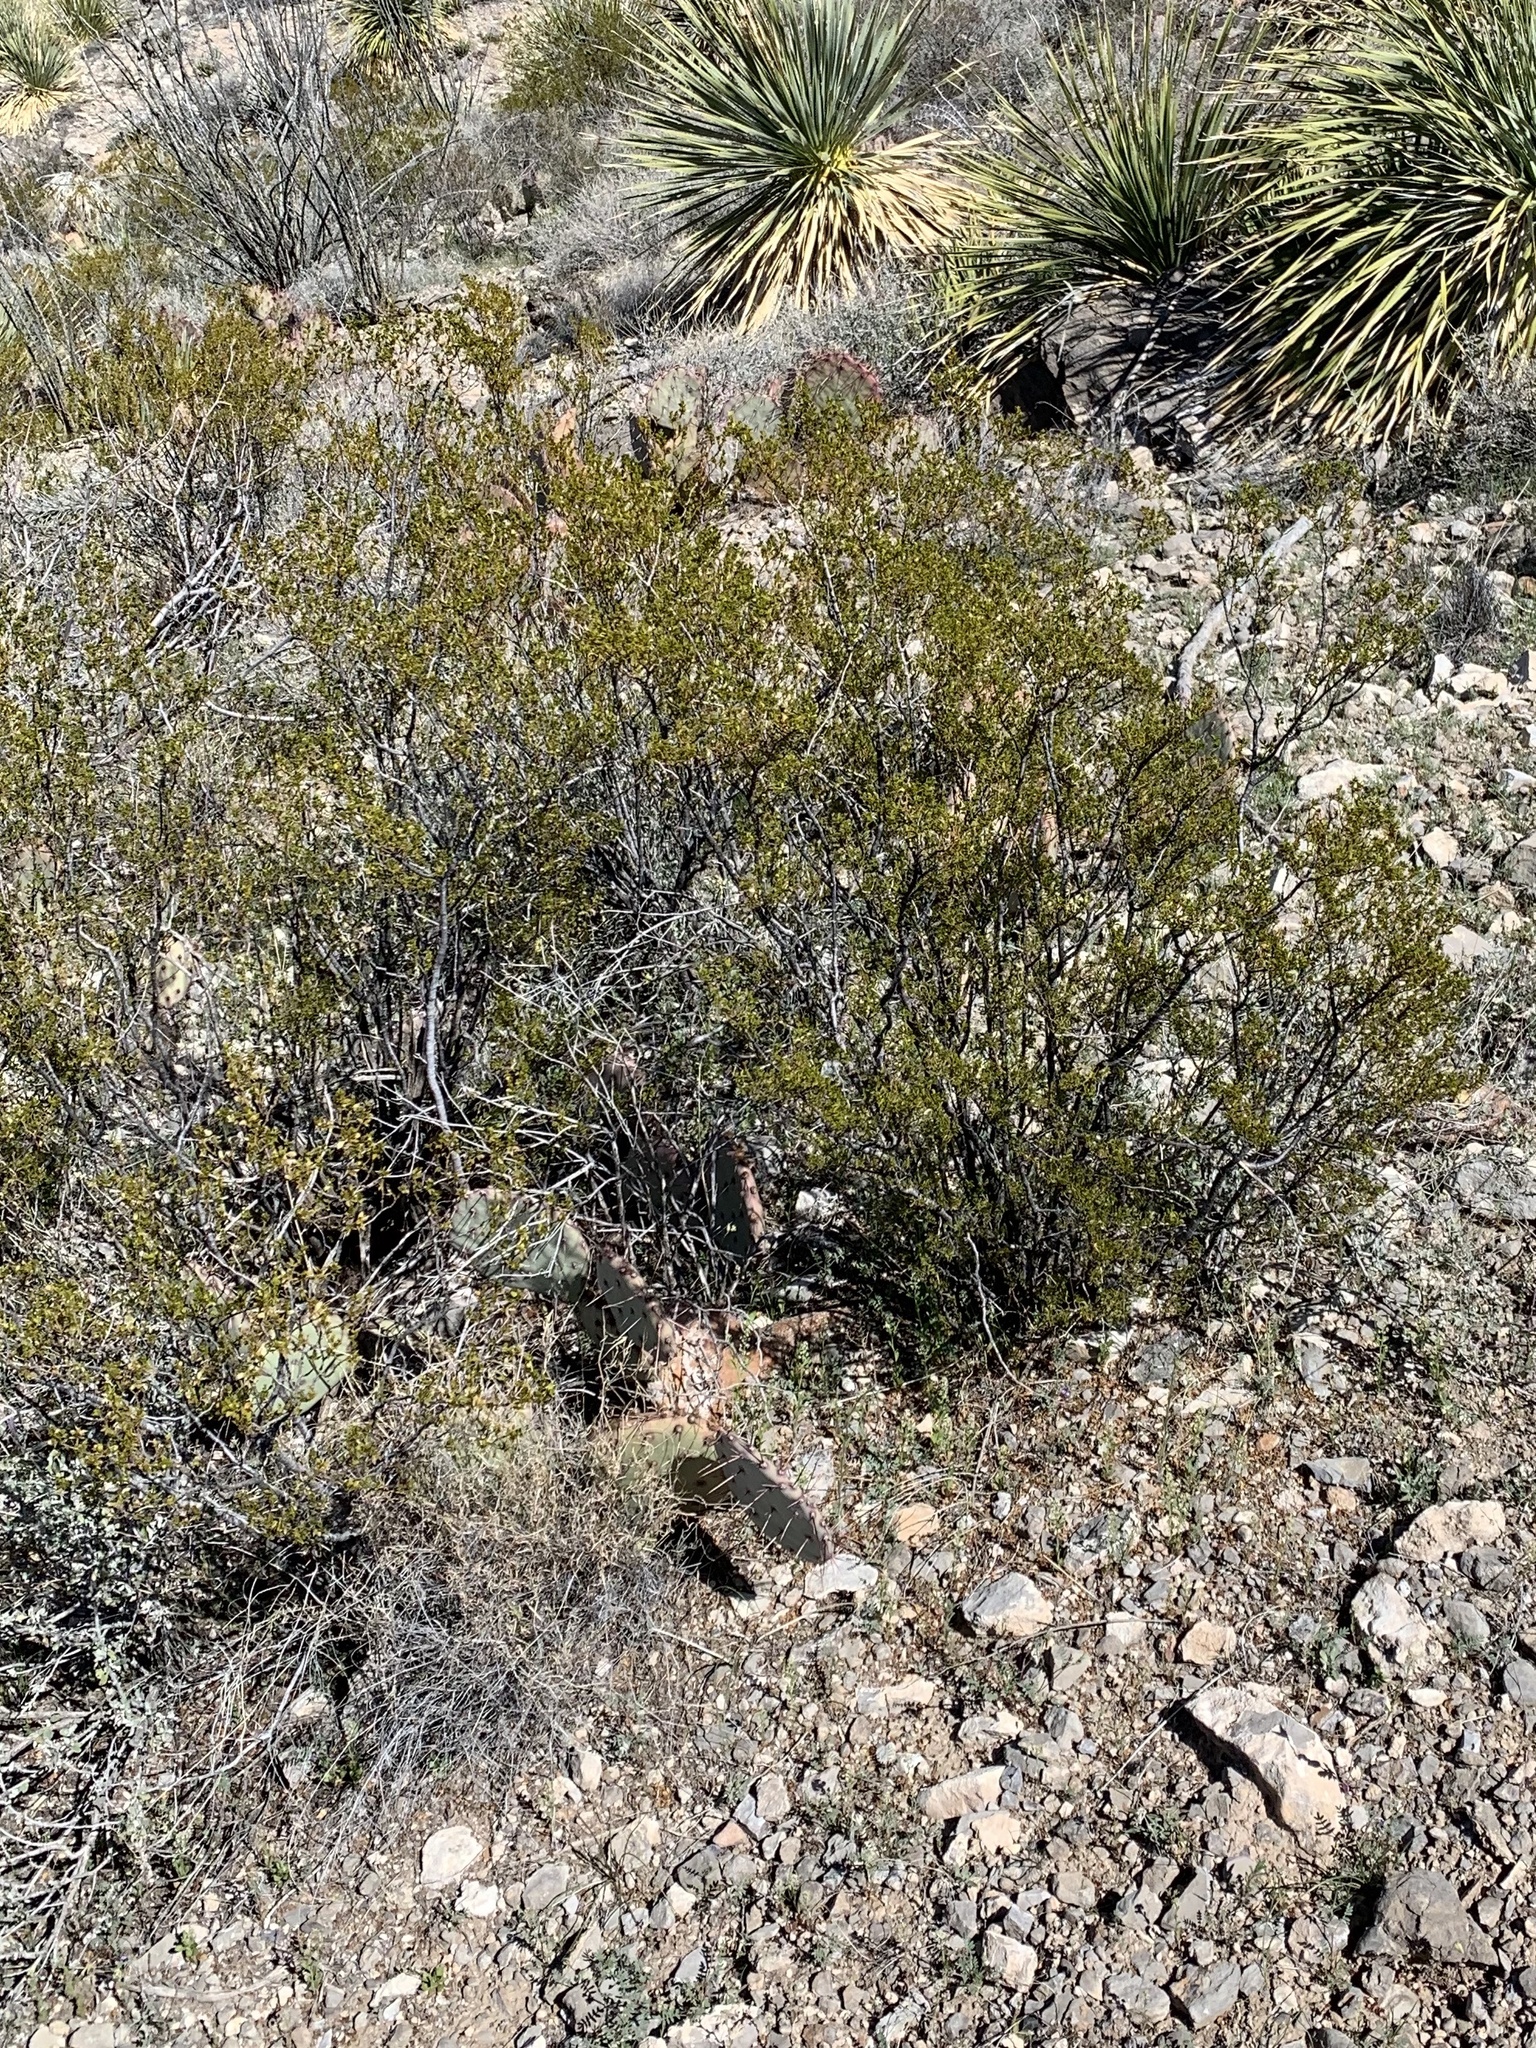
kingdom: Plantae
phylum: Tracheophyta
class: Magnoliopsida
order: Zygophyllales
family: Zygophyllaceae
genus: Larrea
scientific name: Larrea tridentata
